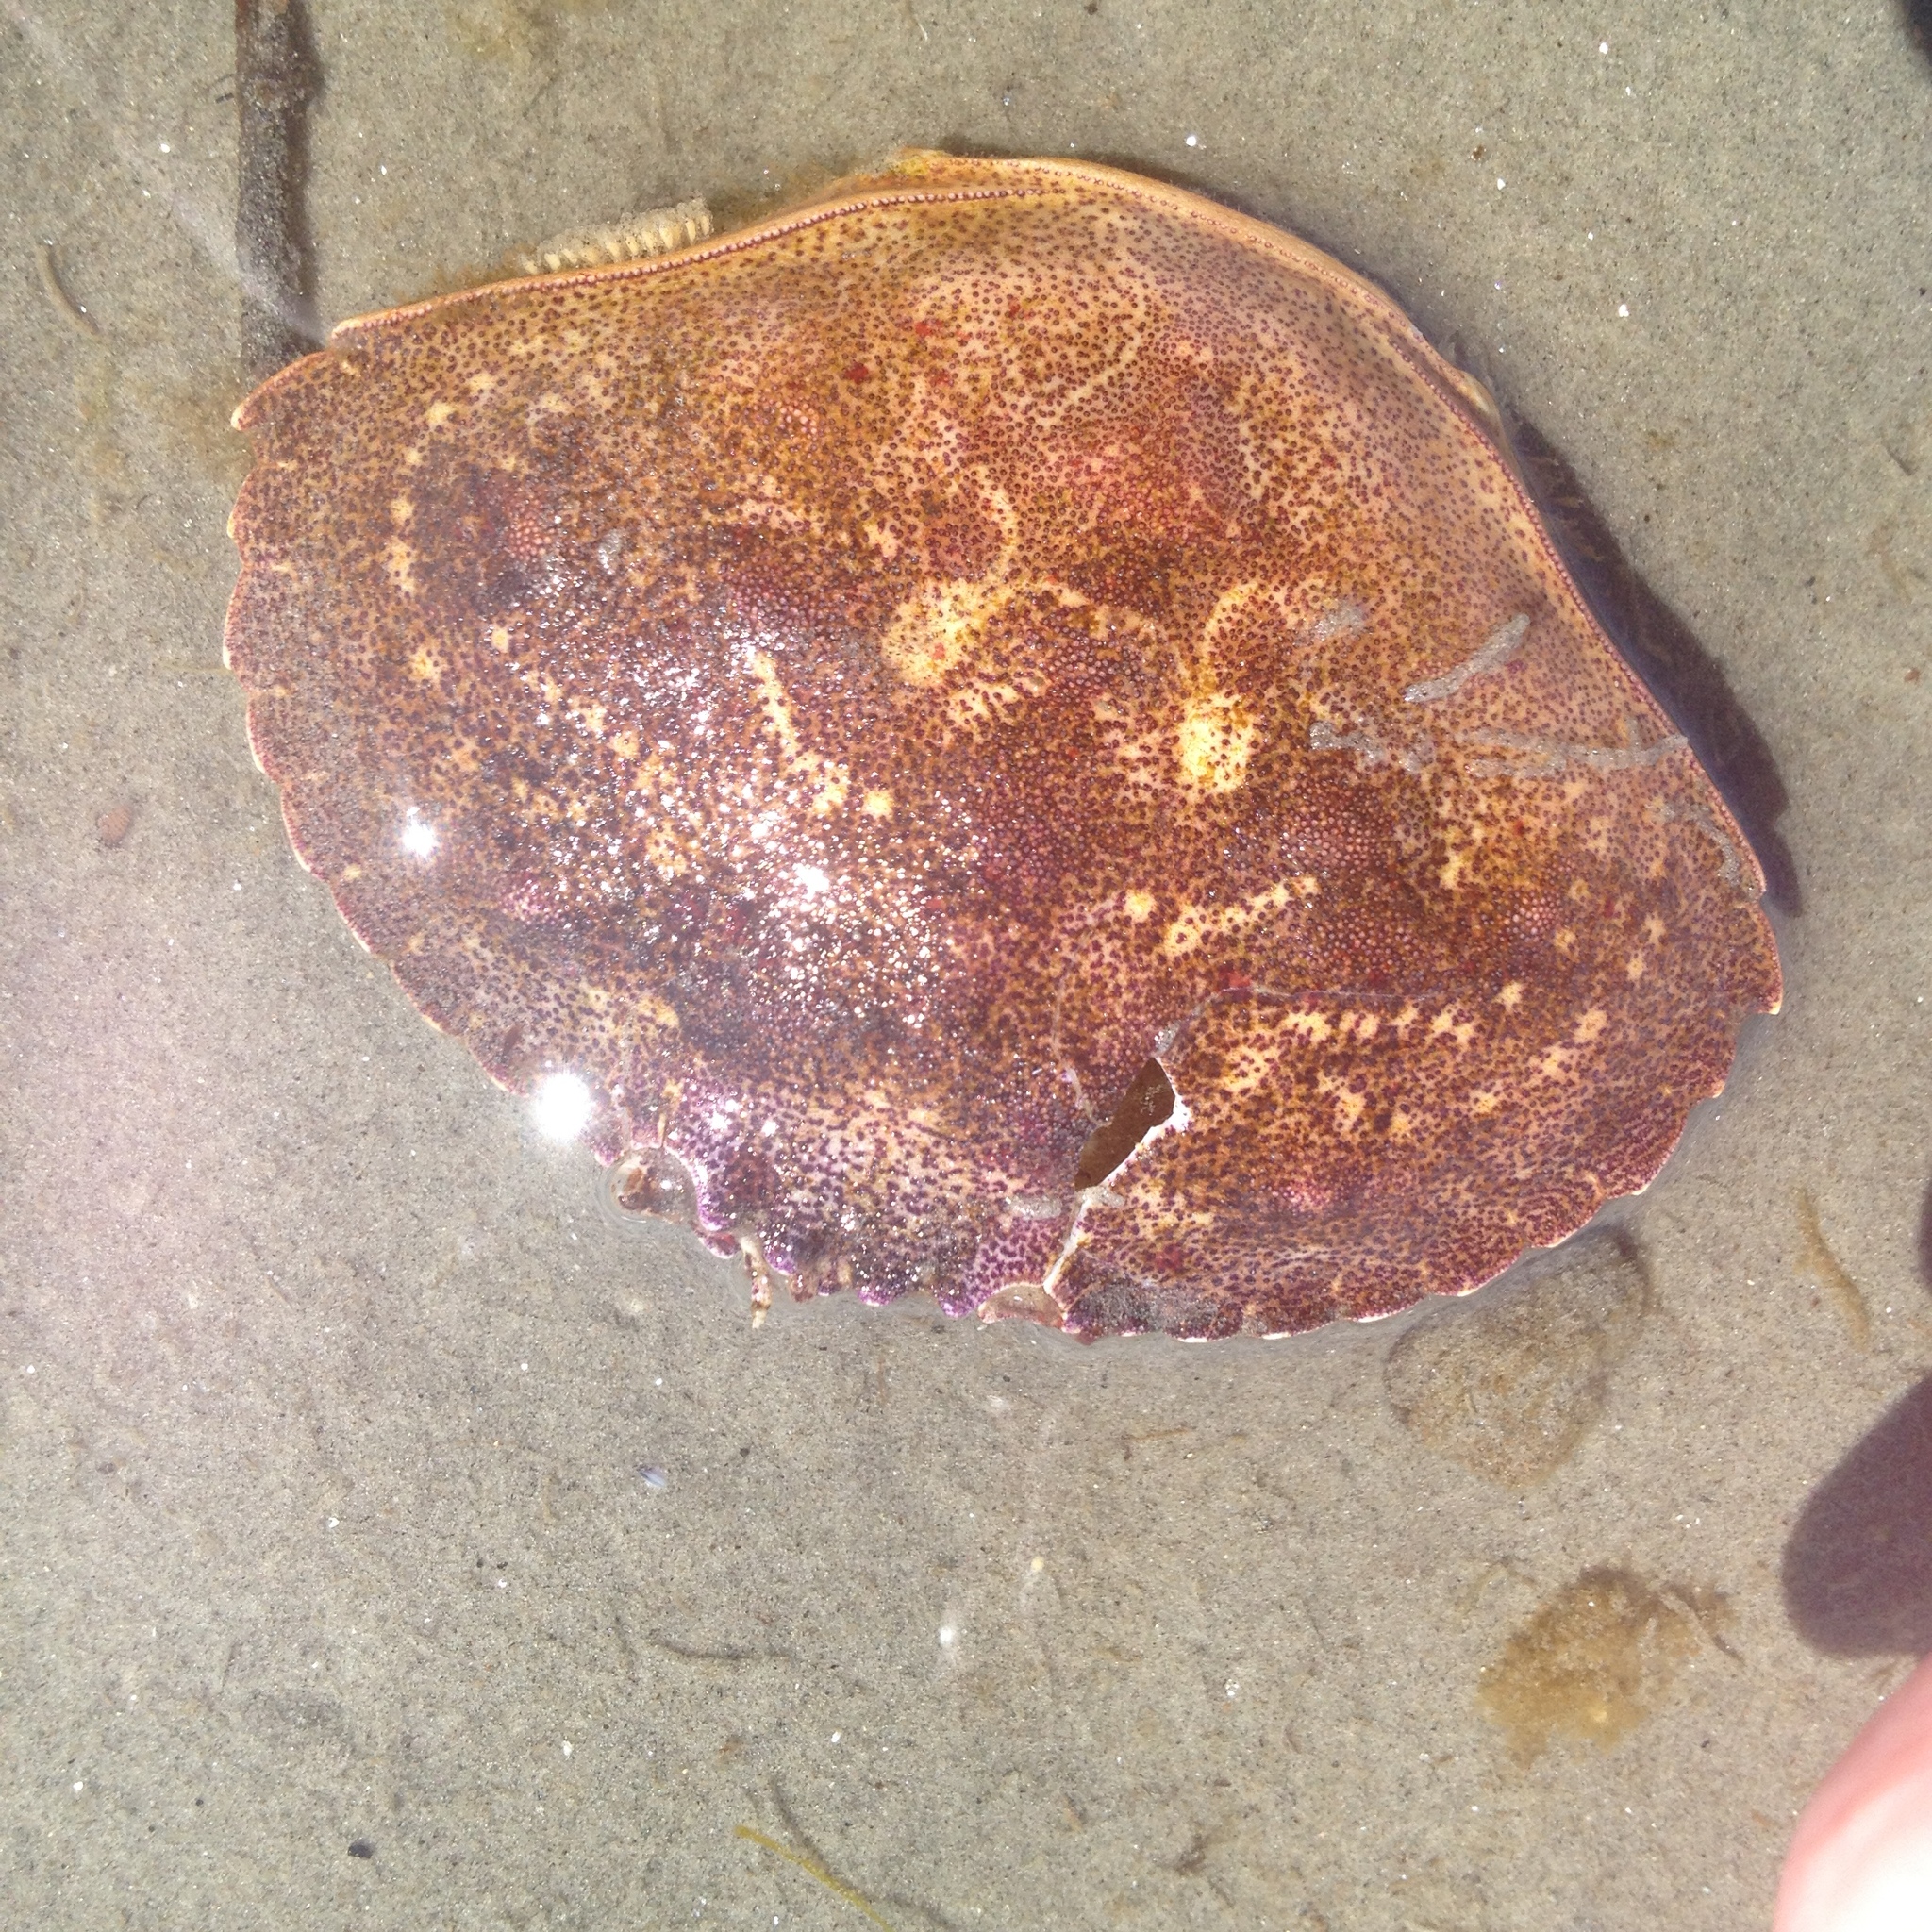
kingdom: Animalia
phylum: Arthropoda
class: Malacostraca
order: Decapoda
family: Cancridae
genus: Cancer
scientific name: Cancer borealis
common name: Jonah crab
